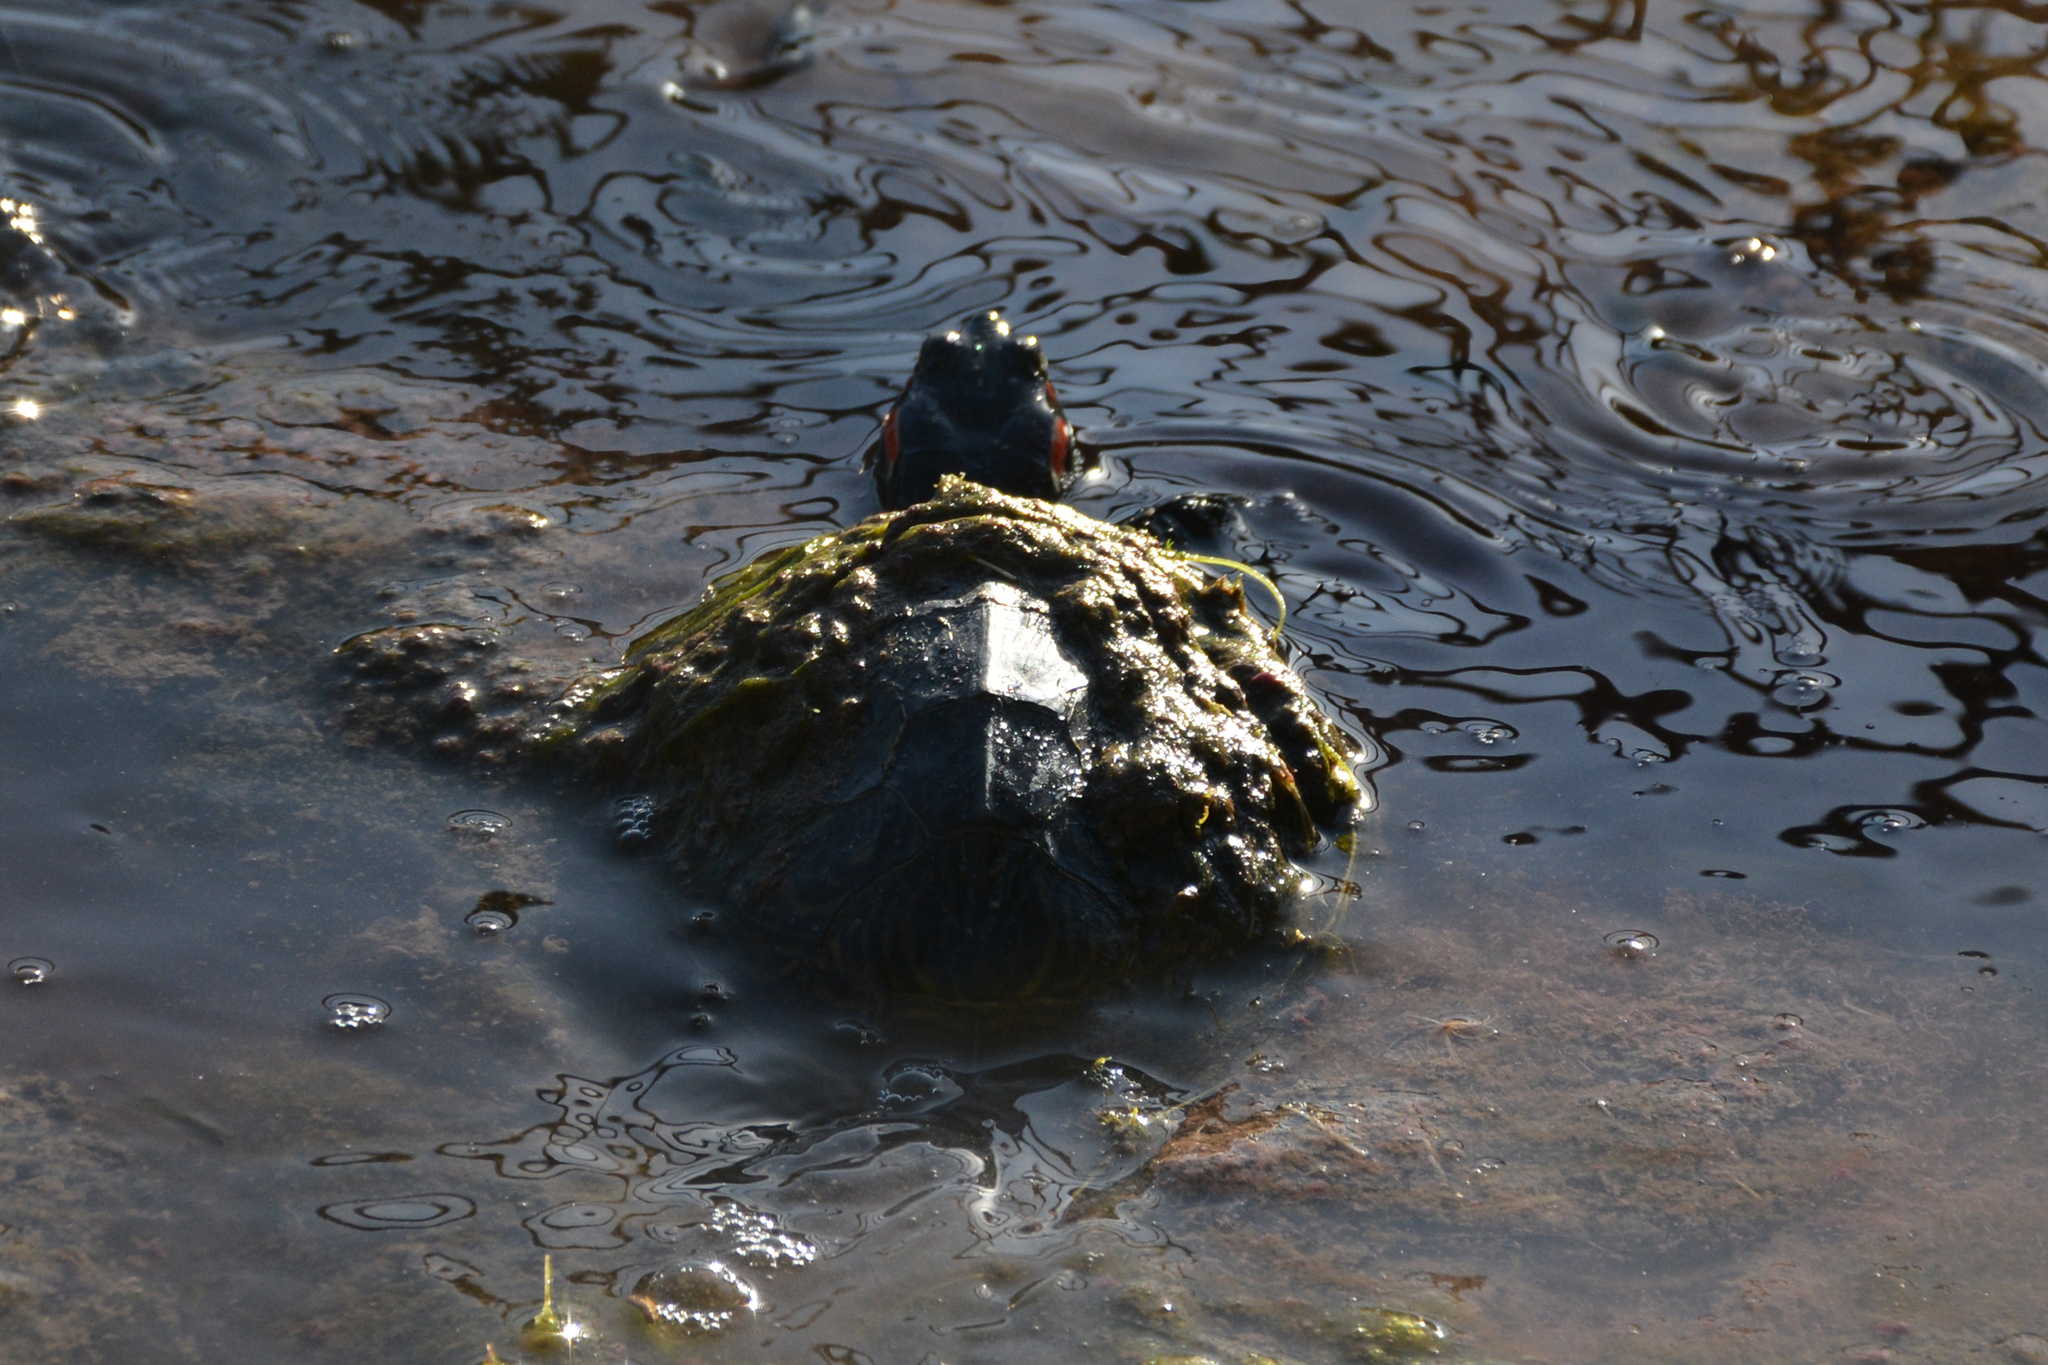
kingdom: Animalia
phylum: Chordata
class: Testudines
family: Emydidae
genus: Trachemys
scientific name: Trachemys scripta
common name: Slider
